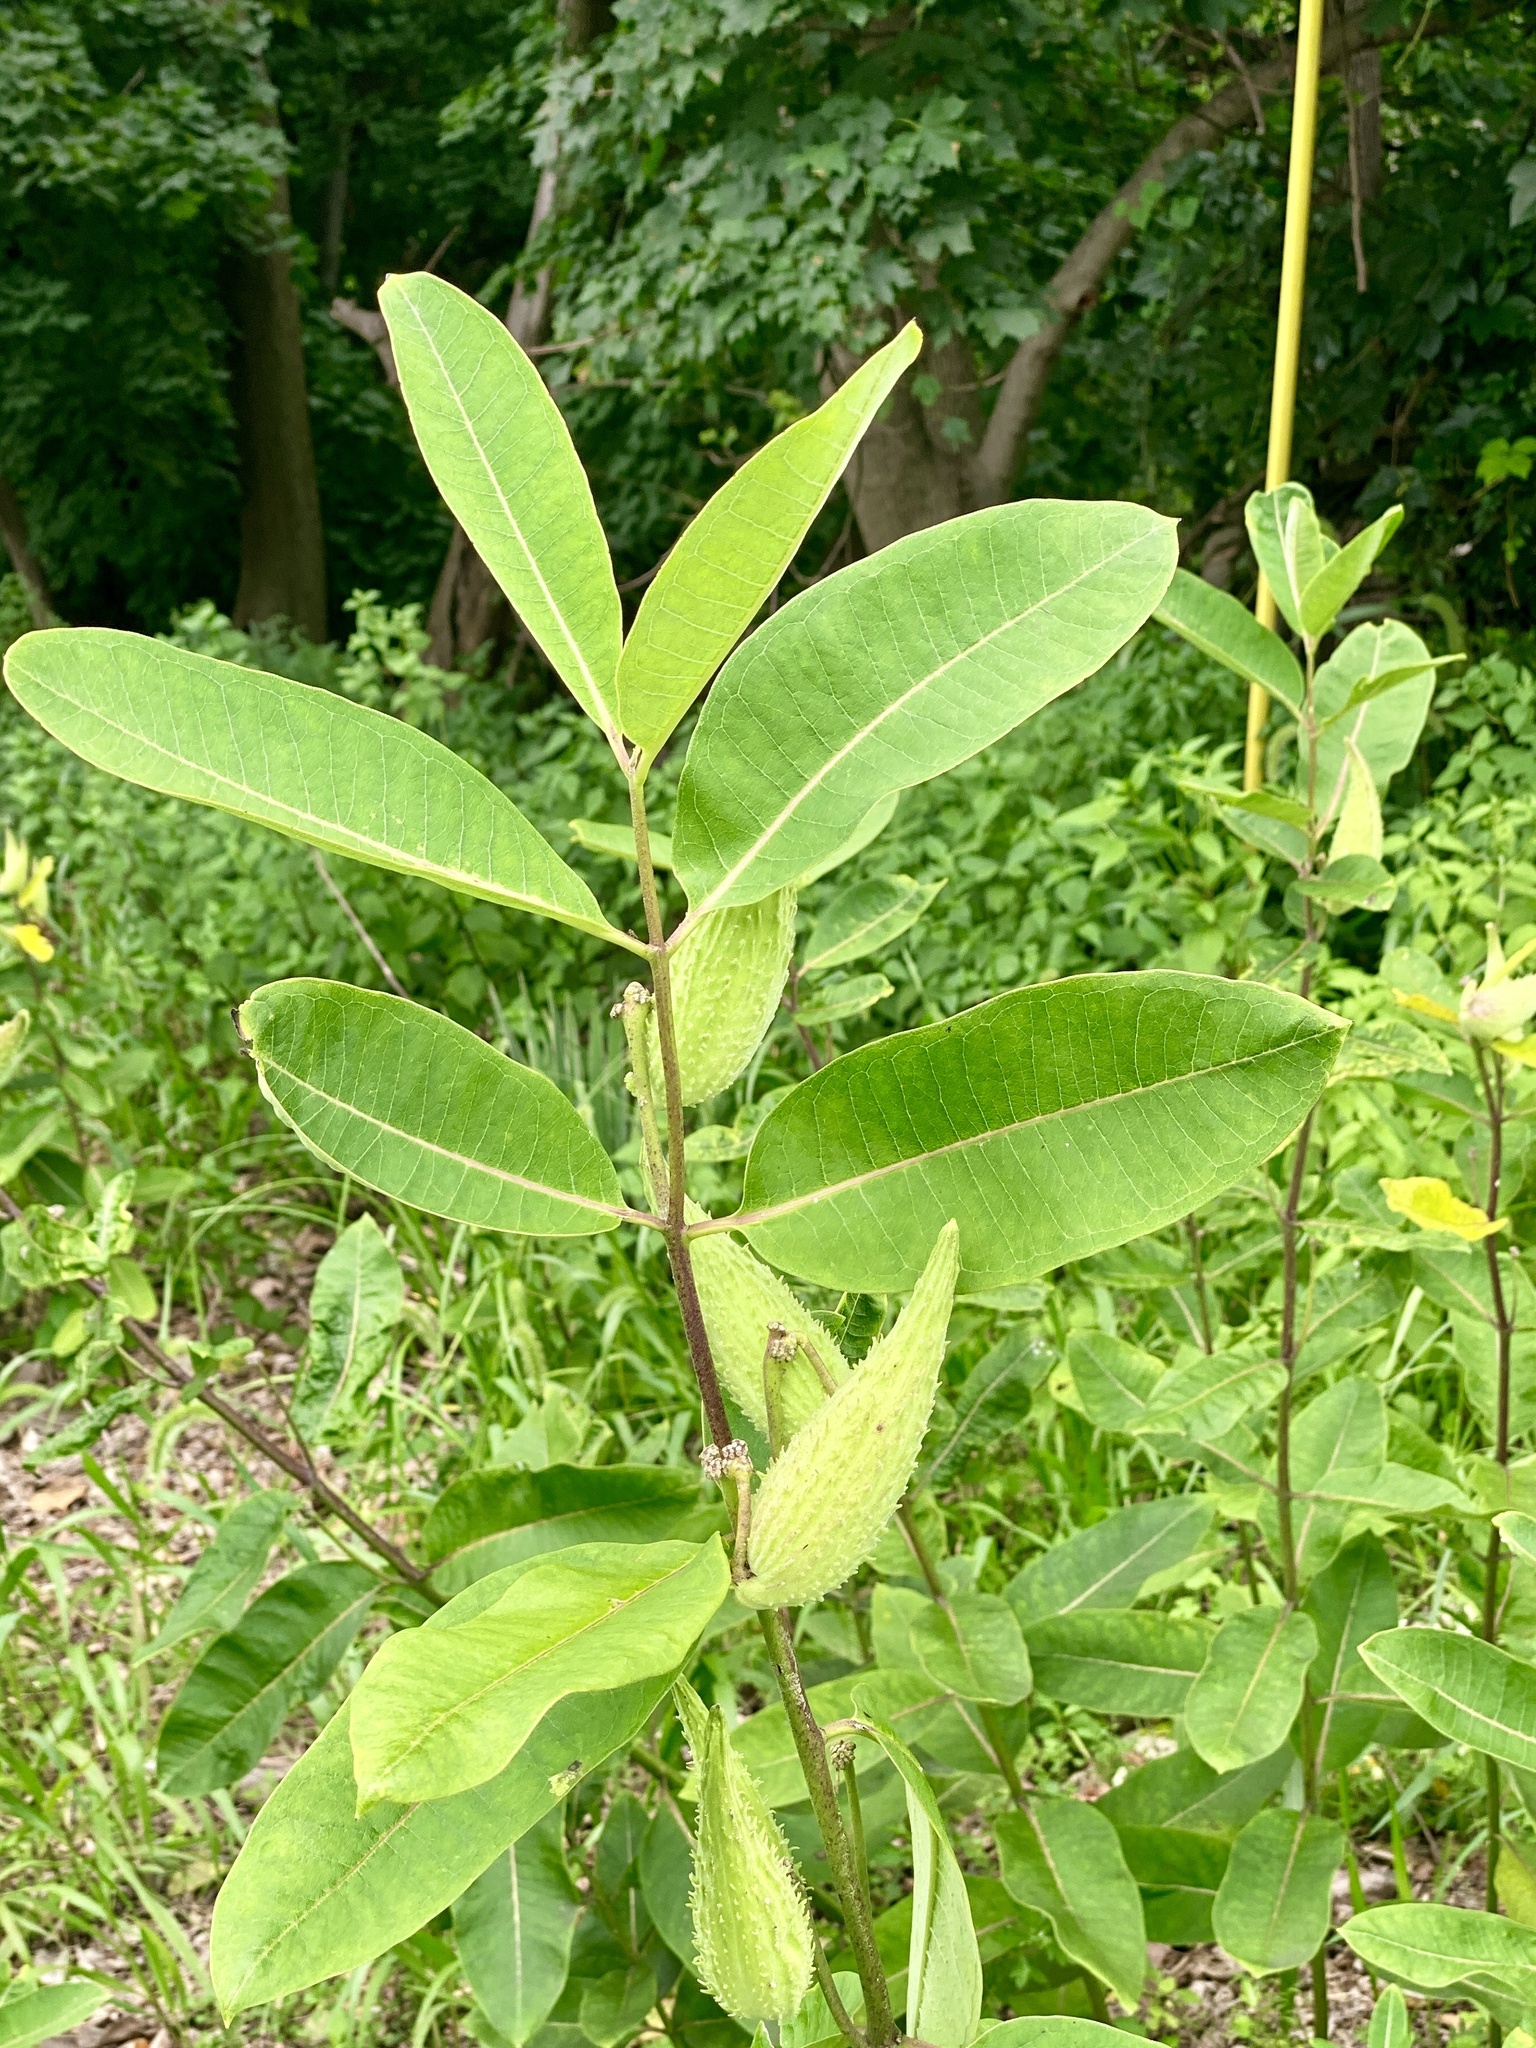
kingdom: Plantae
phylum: Tracheophyta
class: Magnoliopsida
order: Gentianales
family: Apocynaceae
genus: Asclepias
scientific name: Asclepias syriaca
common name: Common milkweed
